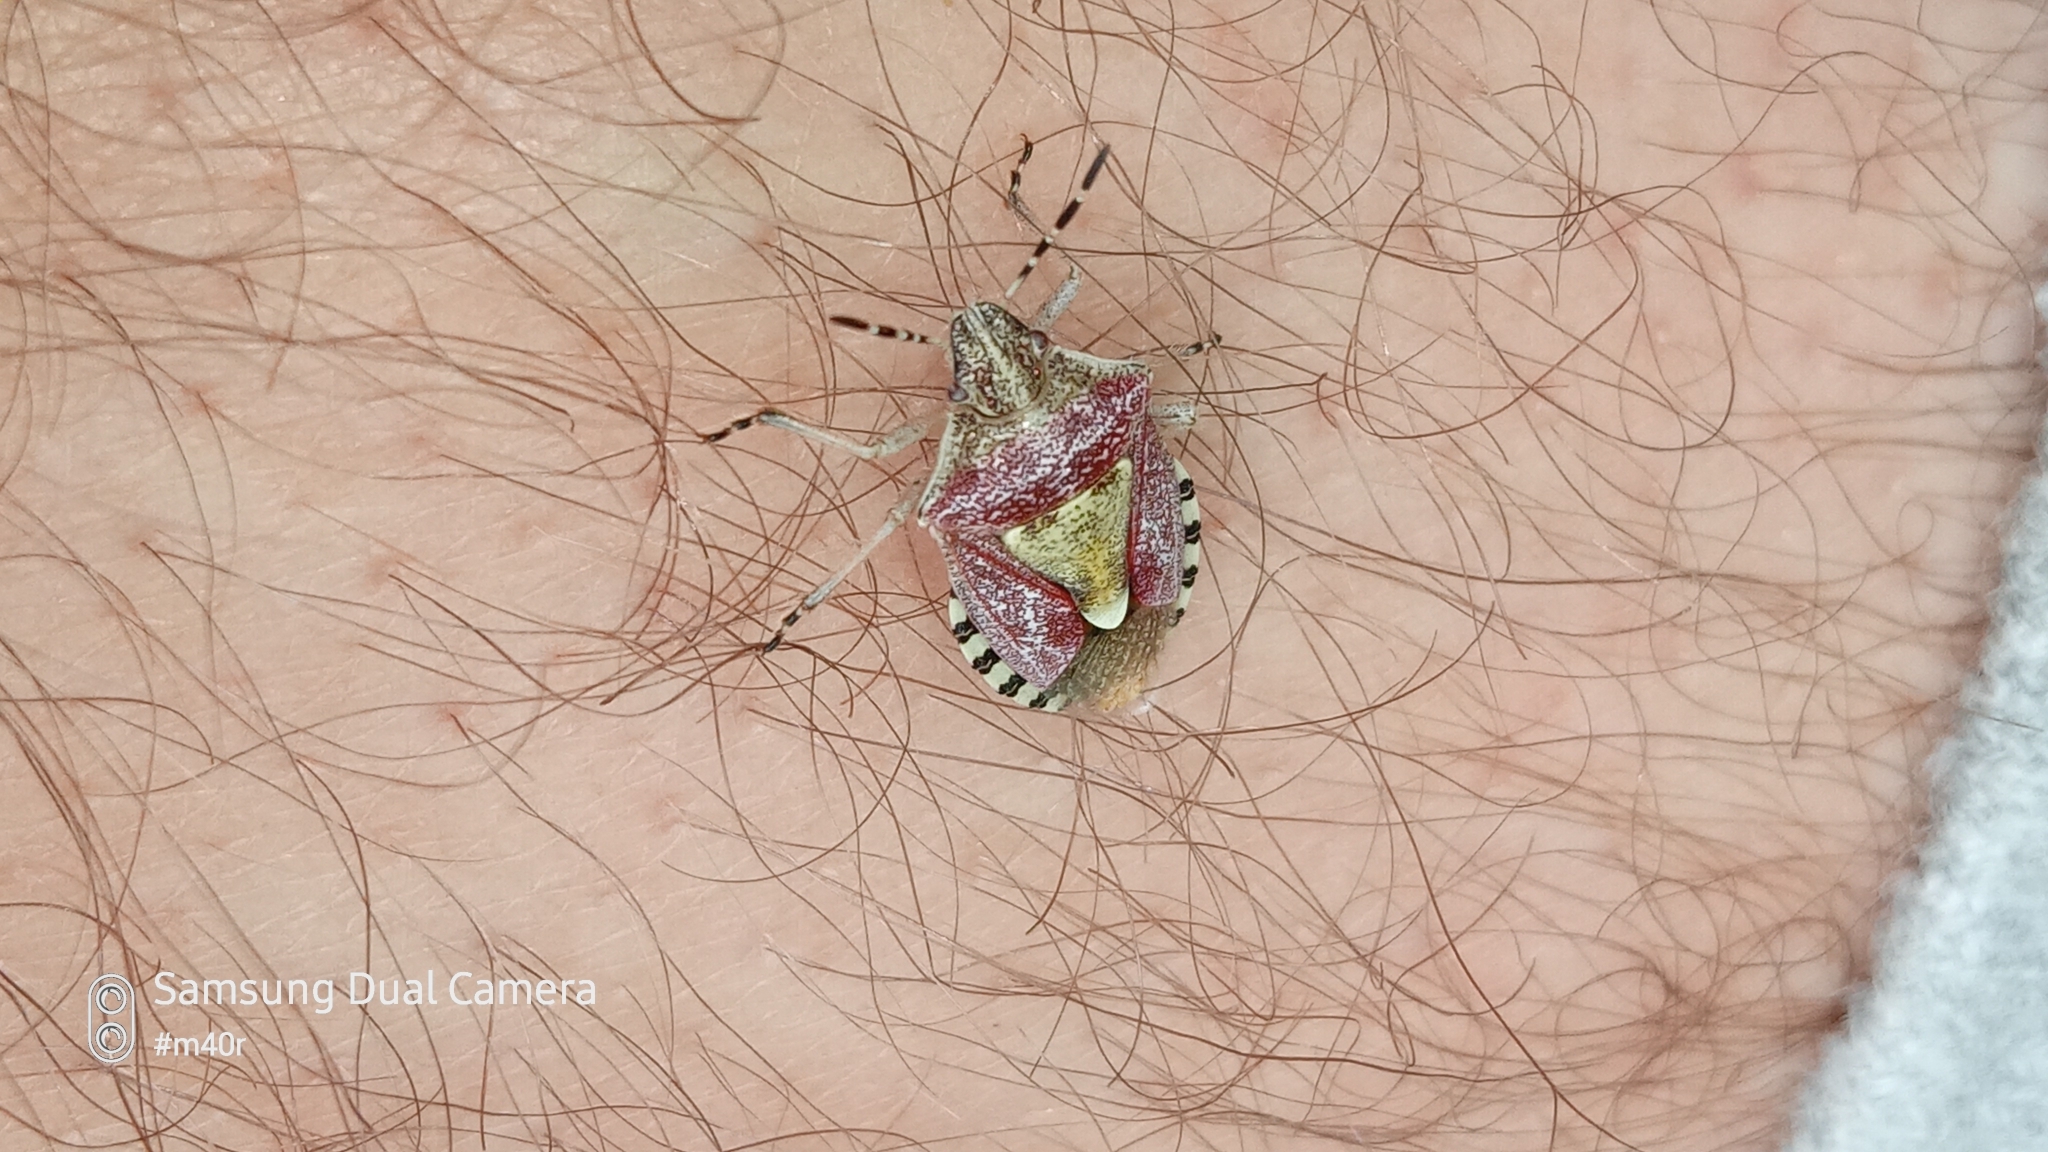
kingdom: Animalia
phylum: Arthropoda
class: Insecta
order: Hemiptera
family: Pentatomidae
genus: Dolycoris
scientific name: Dolycoris baccarum
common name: Sloe bug
